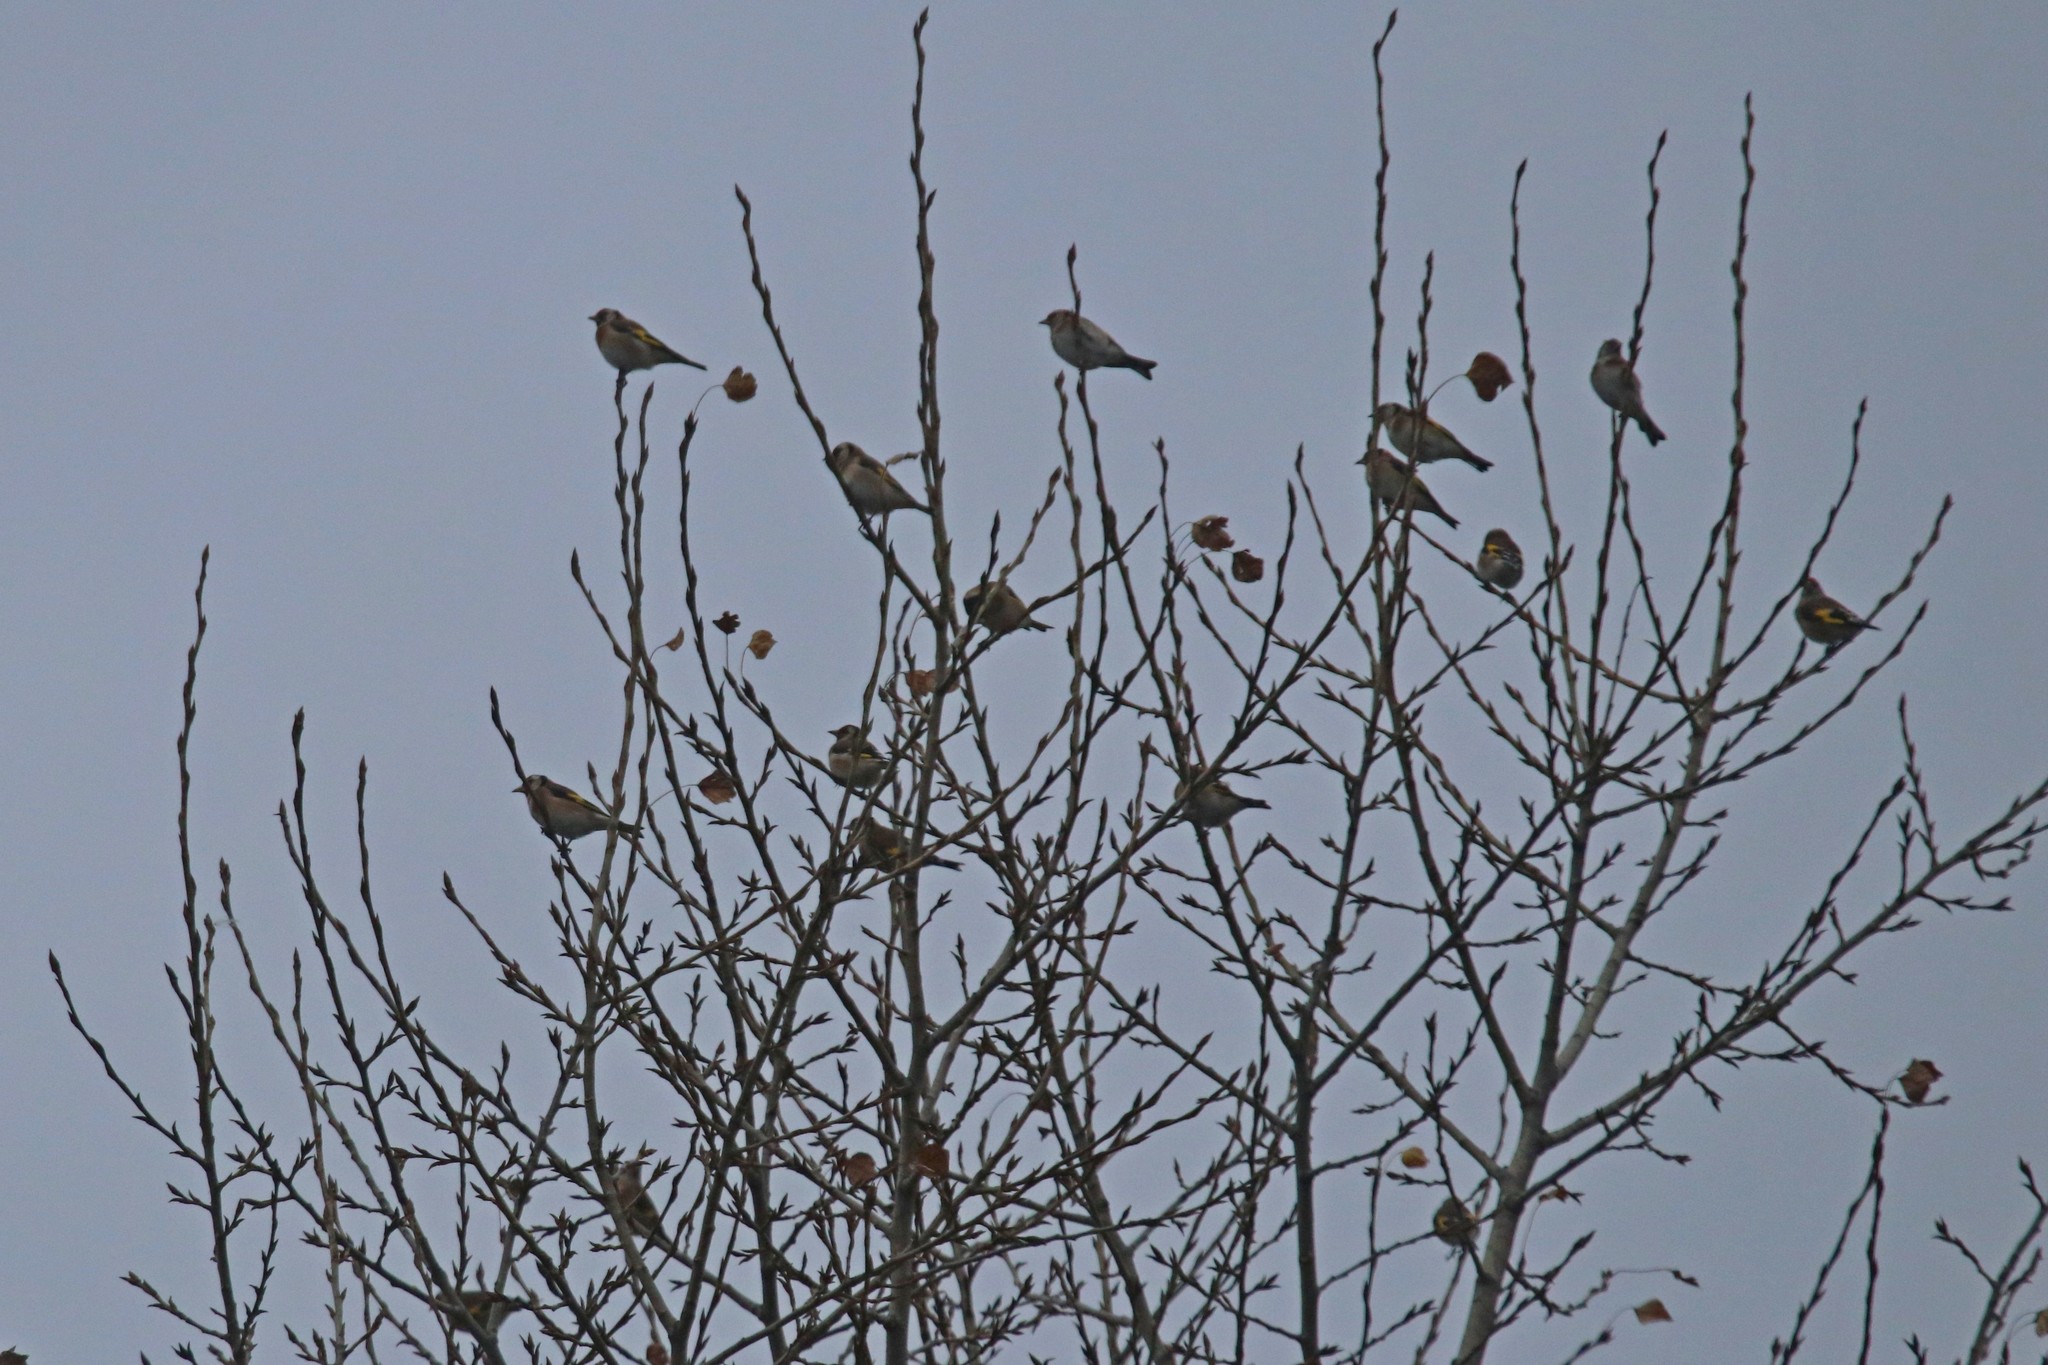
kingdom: Animalia
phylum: Chordata
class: Aves
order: Passeriformes
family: Fringillidae
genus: Carduelis
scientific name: Carduelis carduelis
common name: European goldfinch
